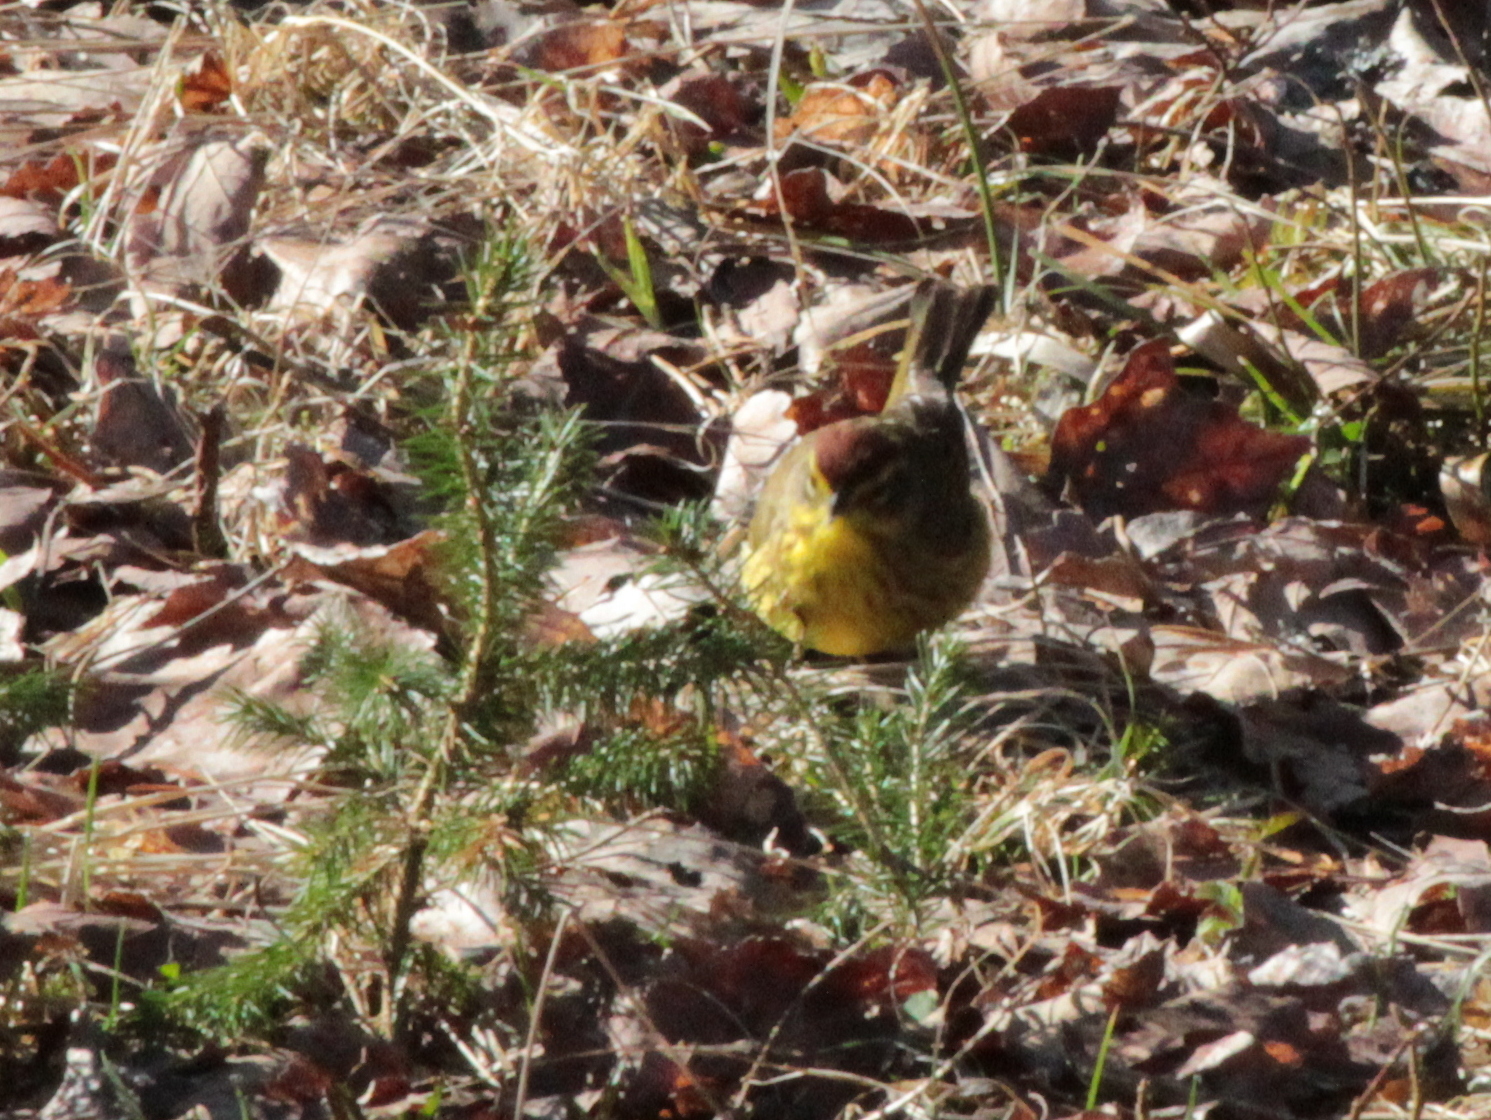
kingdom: Animalia
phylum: Chordata
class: Aves
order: Passeriformes
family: Parulidae
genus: Setophaga
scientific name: Setophaga palmarum
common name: Palm warbler
